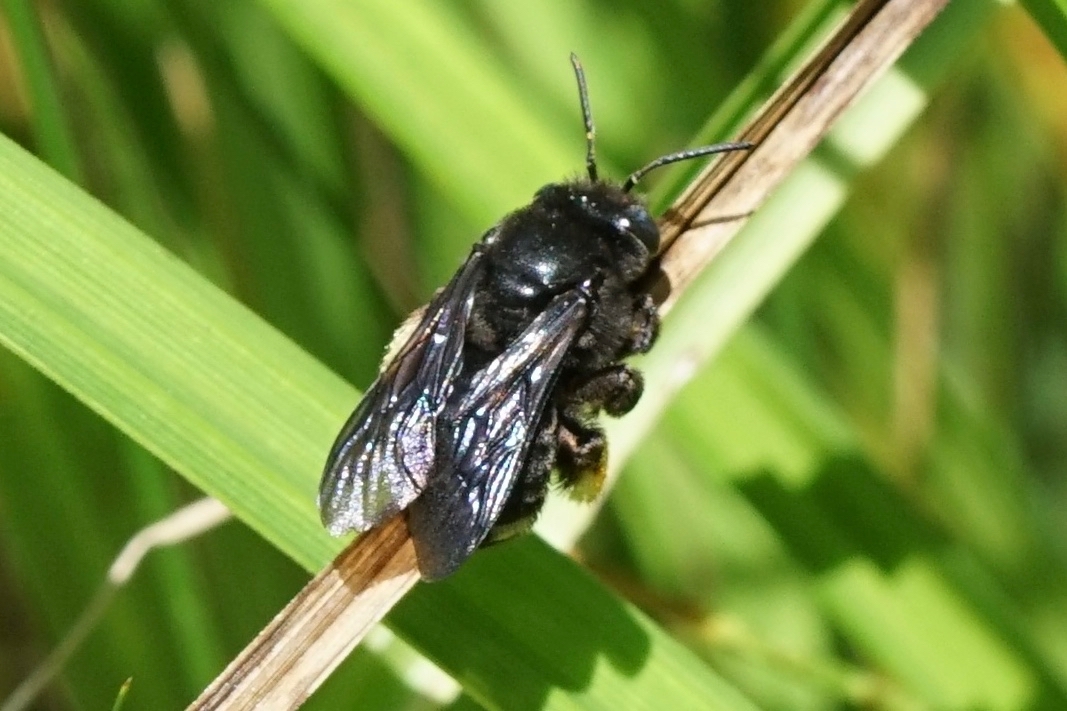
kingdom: Animalia
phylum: Arthropoda
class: Insecta
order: Hymenoptera
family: Apidae
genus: Melissodes
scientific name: Melissodes bimaculatus
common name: Two-spotted long-horned bee
